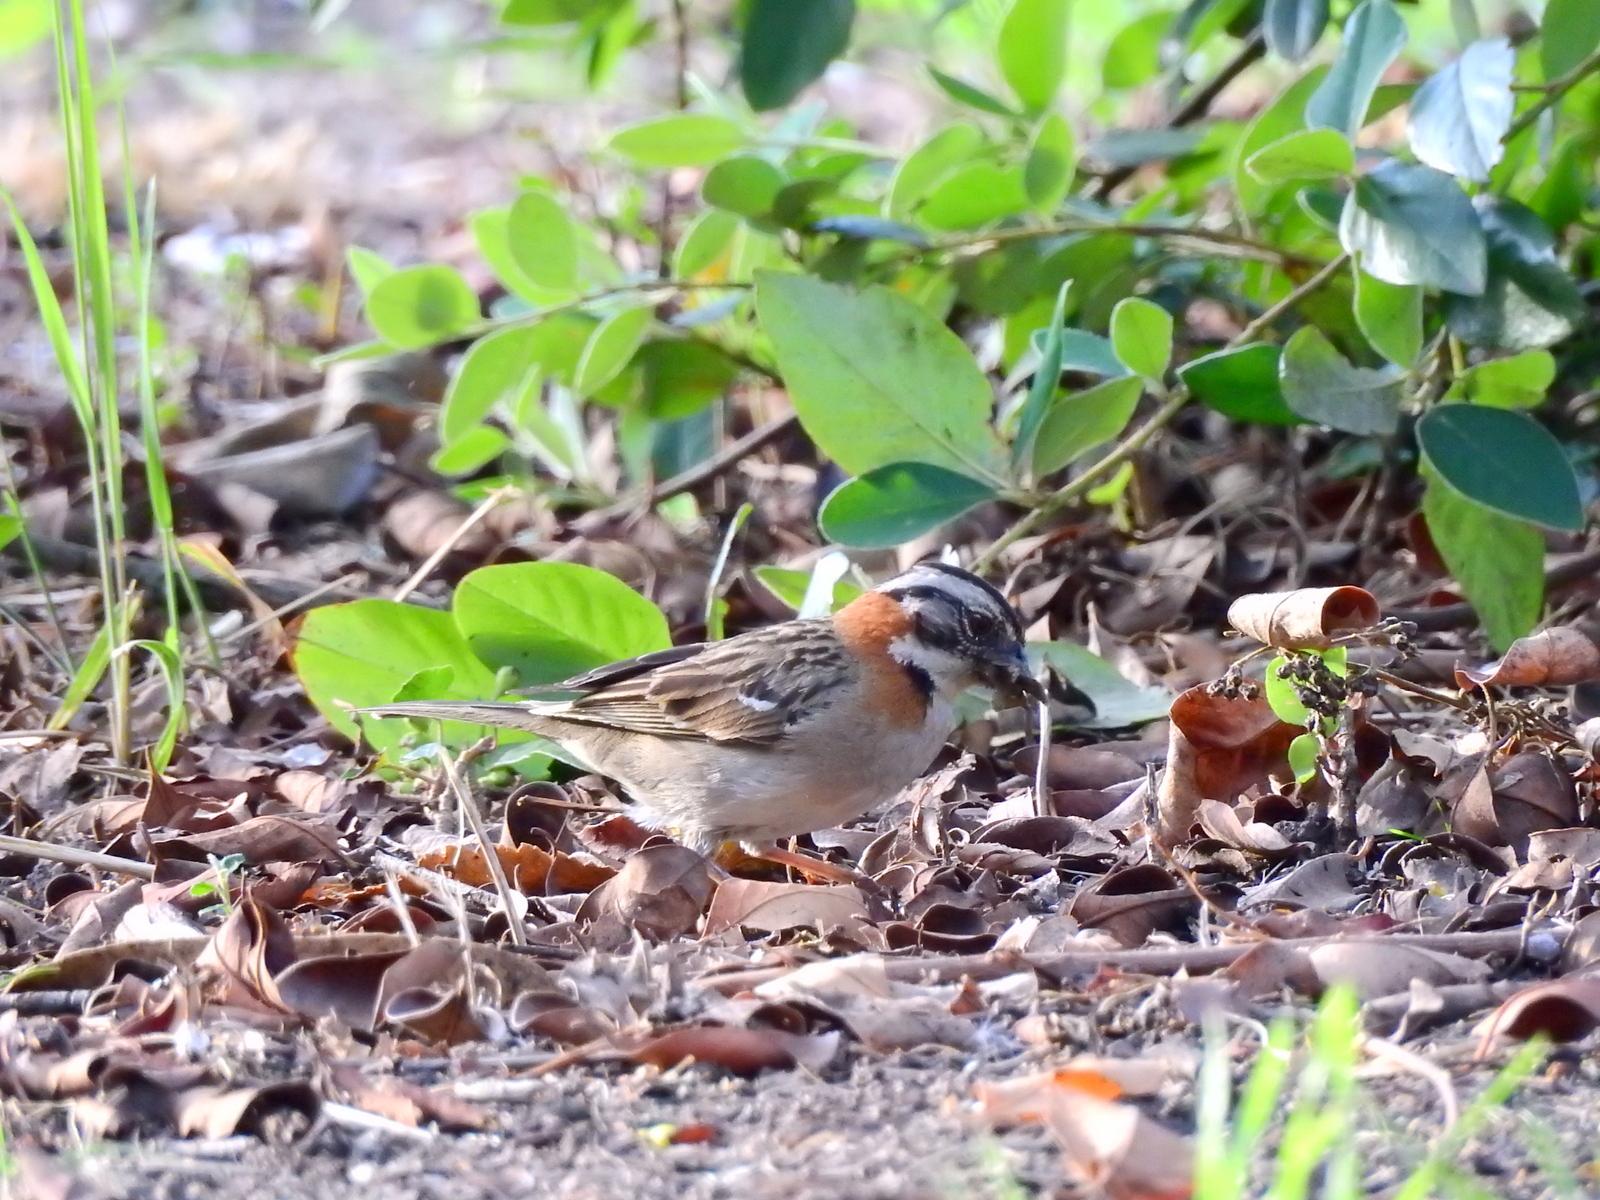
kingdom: Animalia
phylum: Chordata
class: Aves
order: Passeriformes
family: Passerellidae
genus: Zonotrichia
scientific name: Zonotrichia capensis
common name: Rufous-collared sparrow
